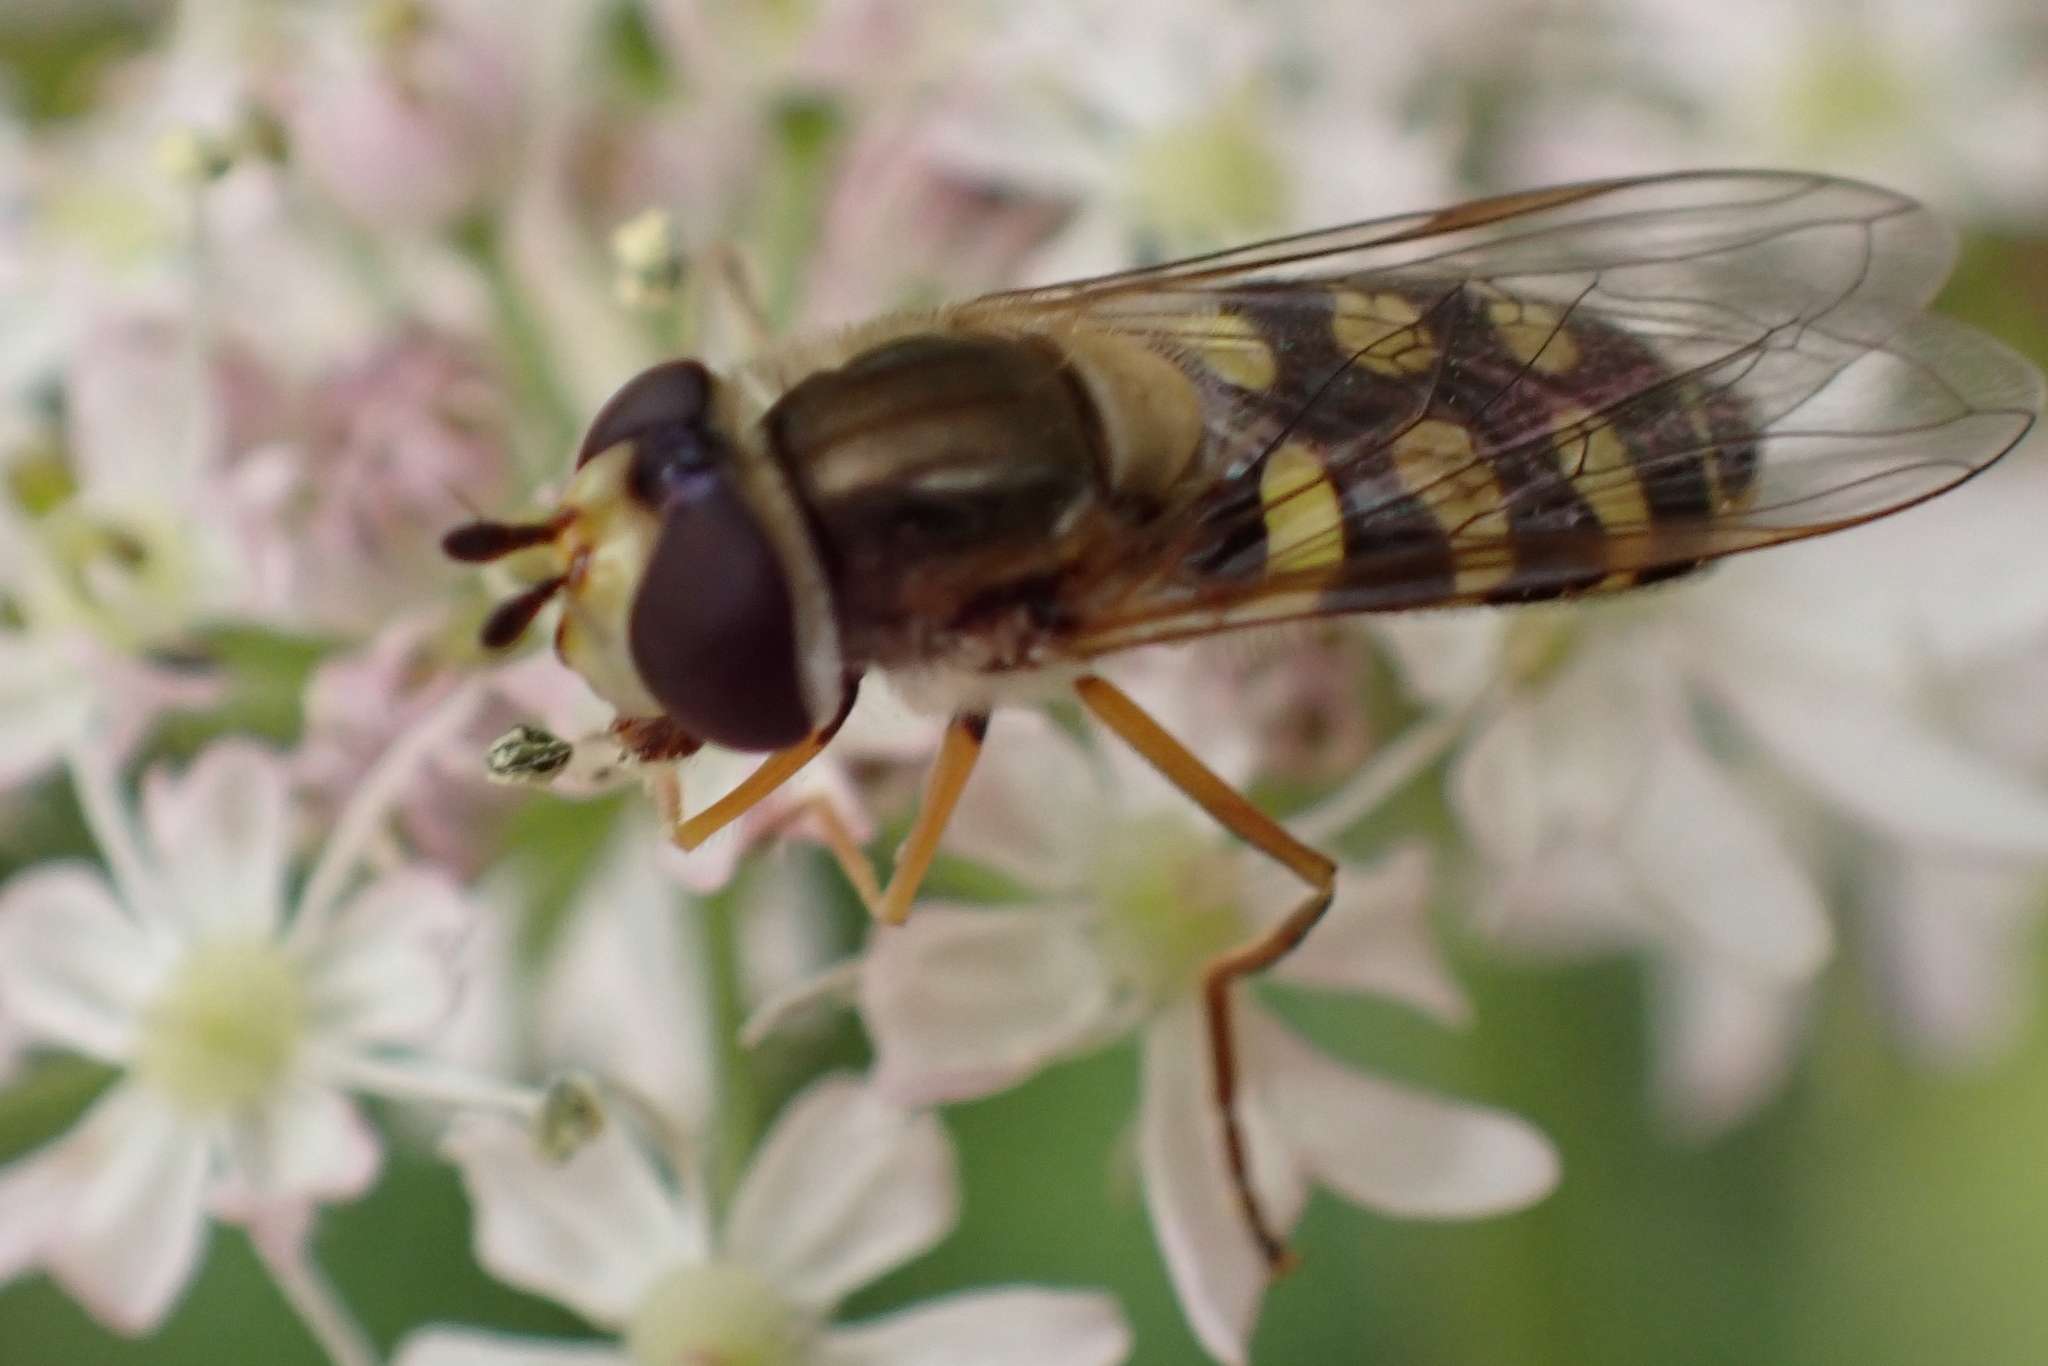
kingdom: Animalia
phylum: Arthropoda
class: Insecta
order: Diptera
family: Syrphidae
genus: Eupeodes
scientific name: Eupeodes corollae
